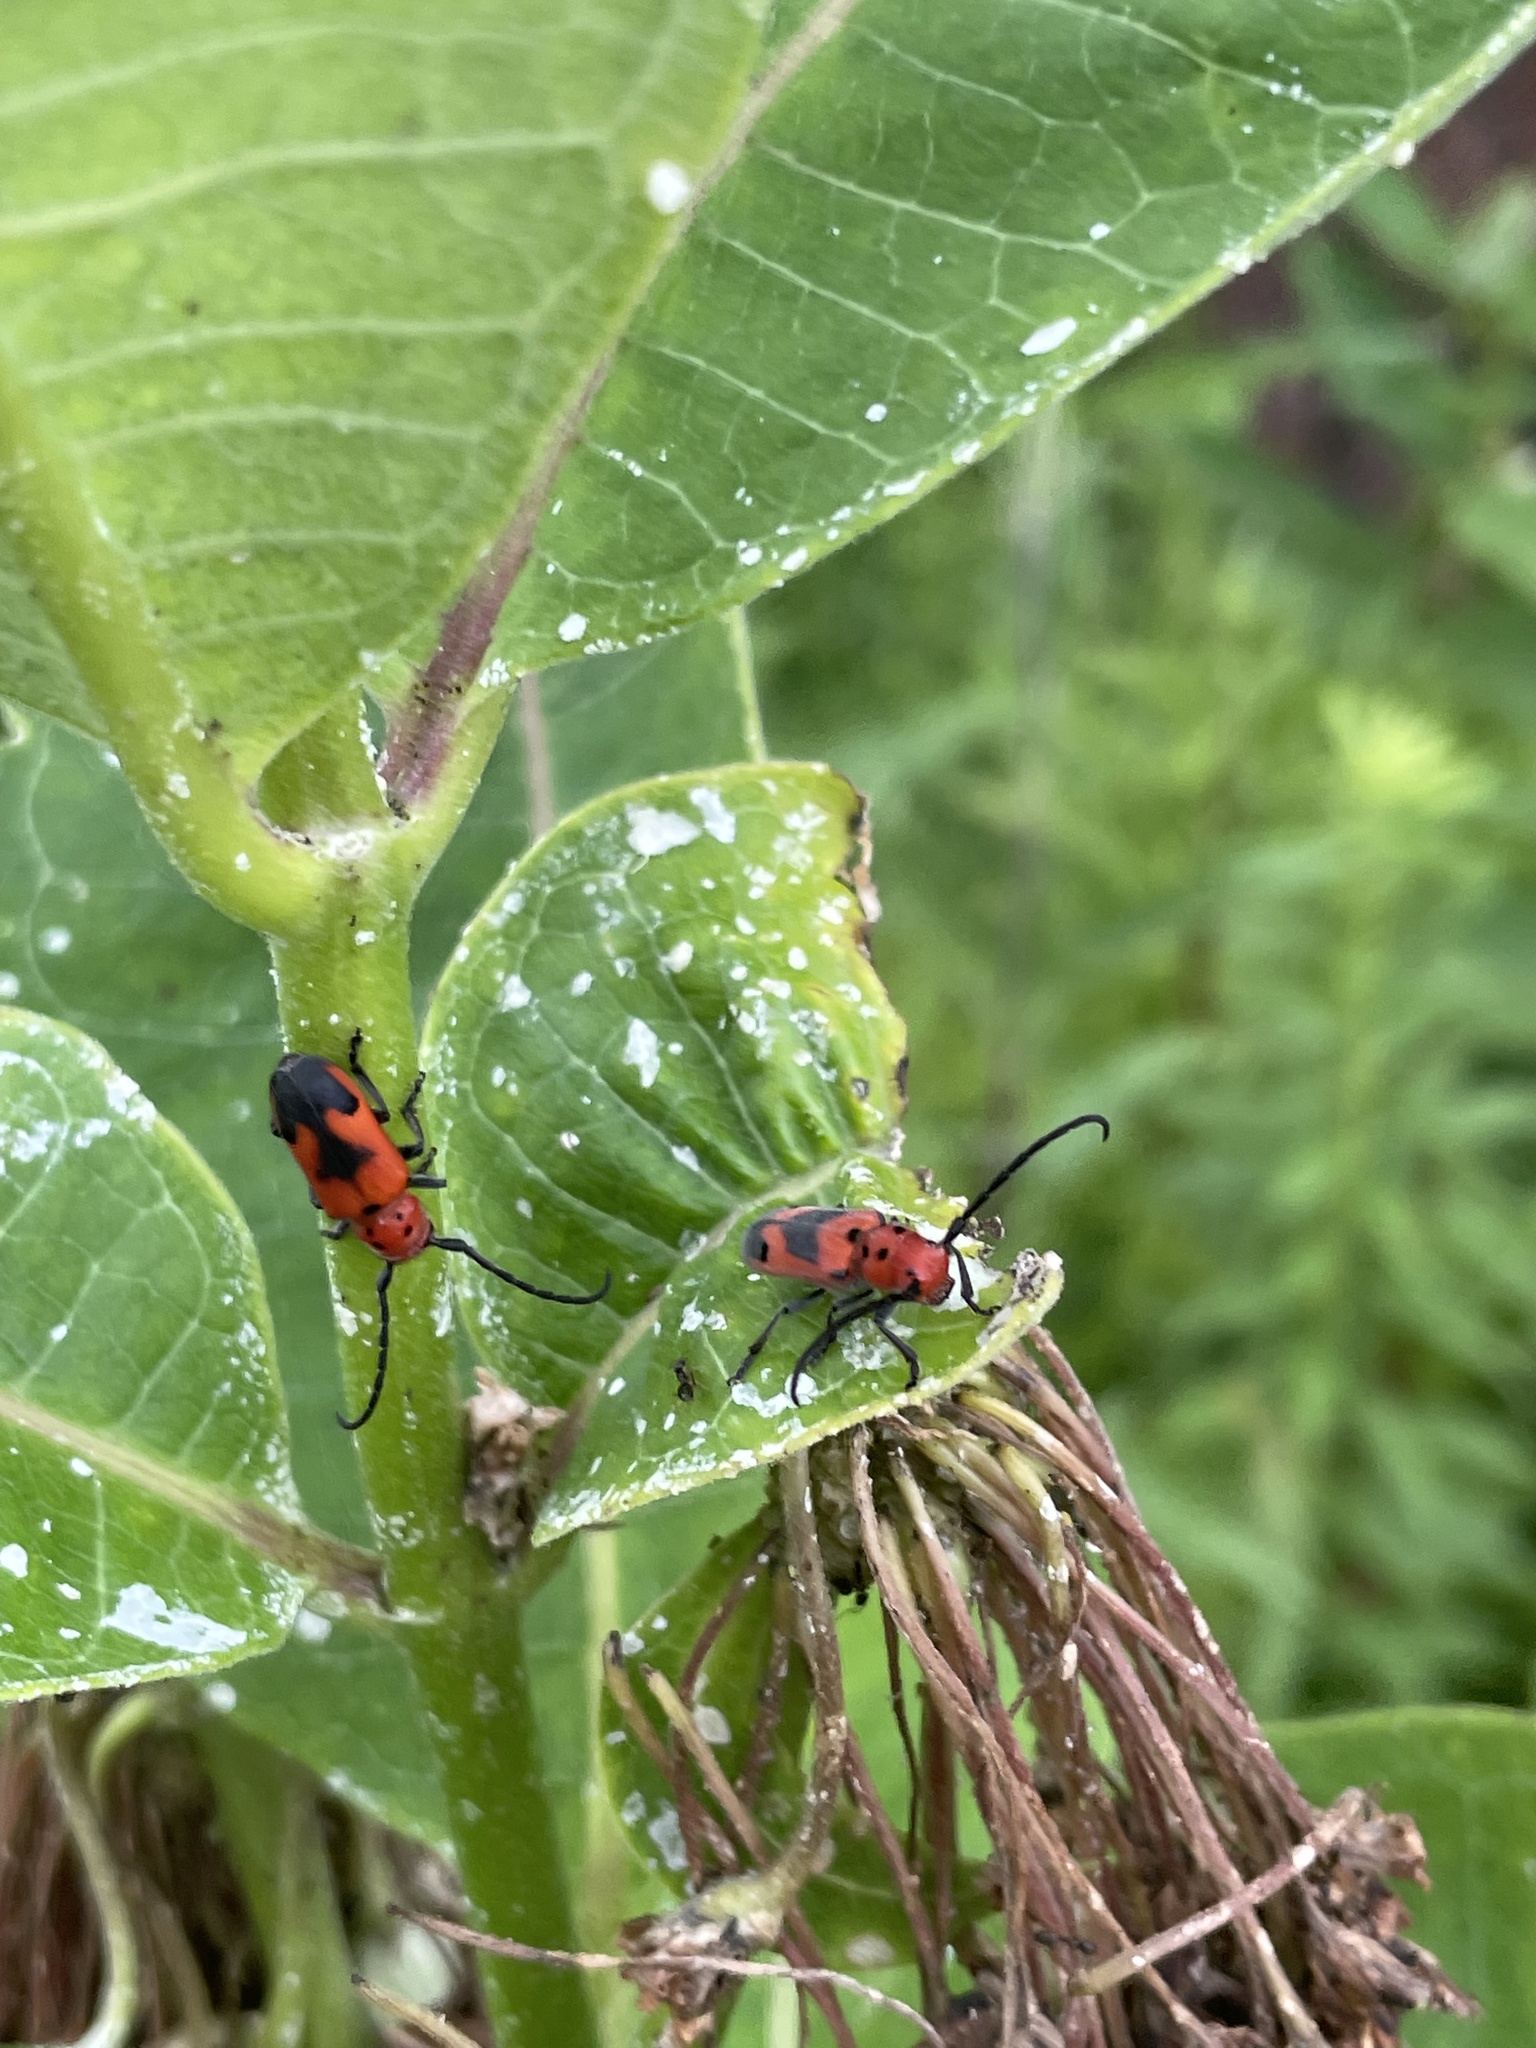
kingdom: Animalia
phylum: Arthropoda
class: Insecta
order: Coleoptera
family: Cerambycidae
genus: Tetraopes
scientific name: Tetraopes melanurus
